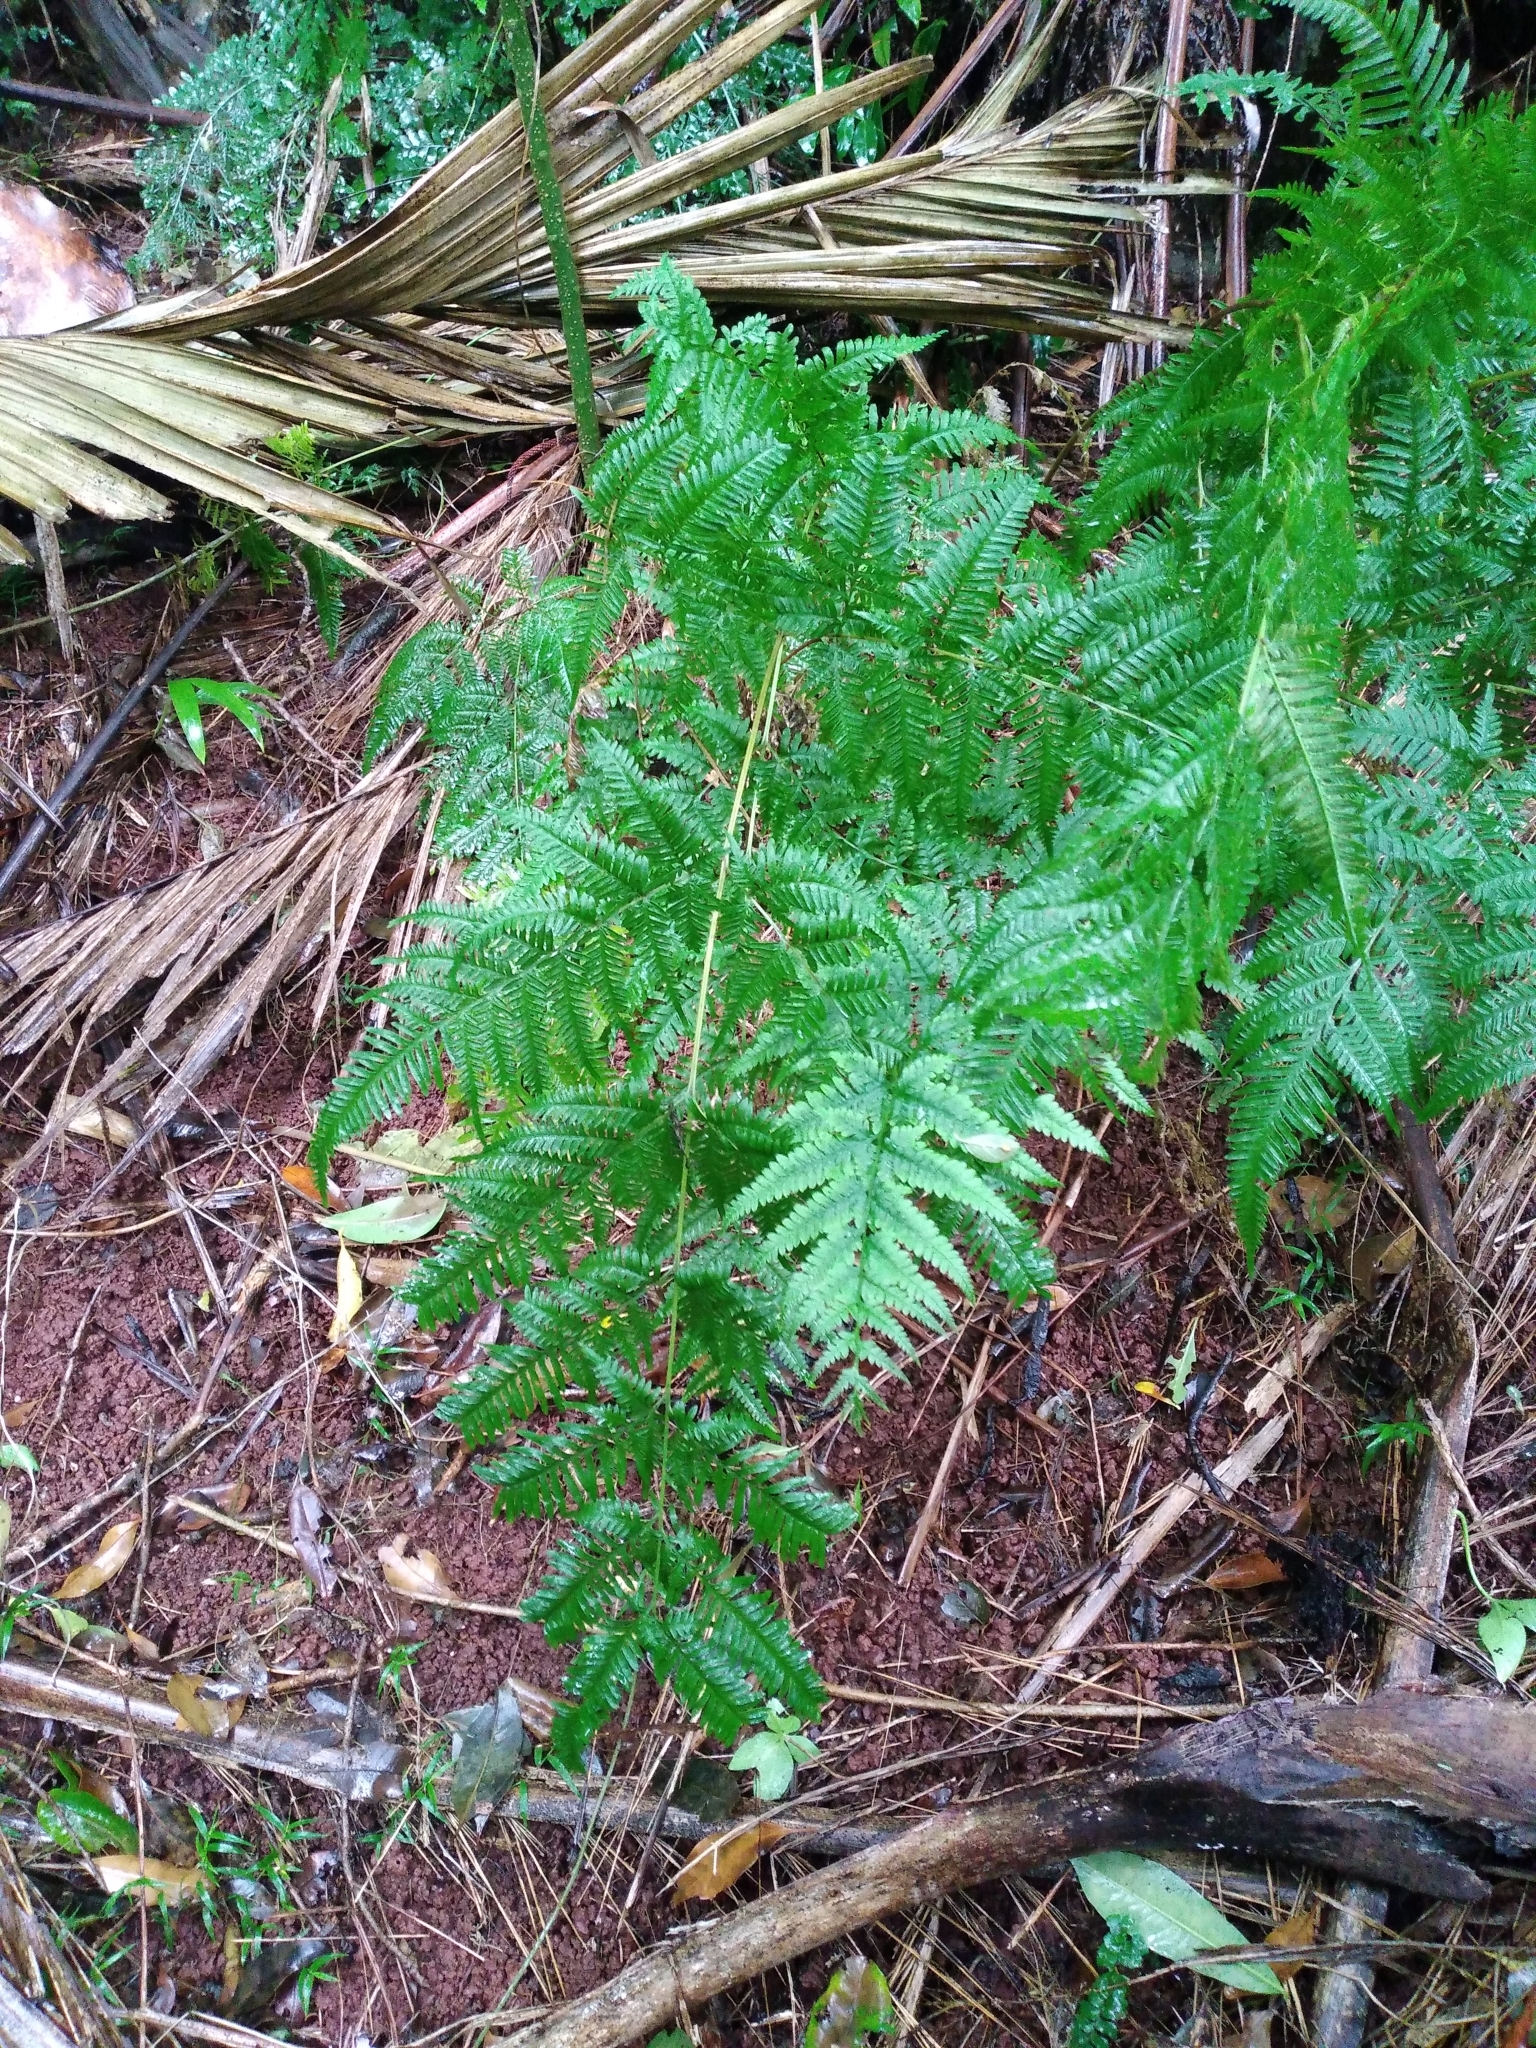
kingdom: Plantae
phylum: Tracheophyta
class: Polypodiopsida
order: Polypodiales
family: Pteridaceae
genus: Pteris
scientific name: Pteris tremula
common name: Australian brake
